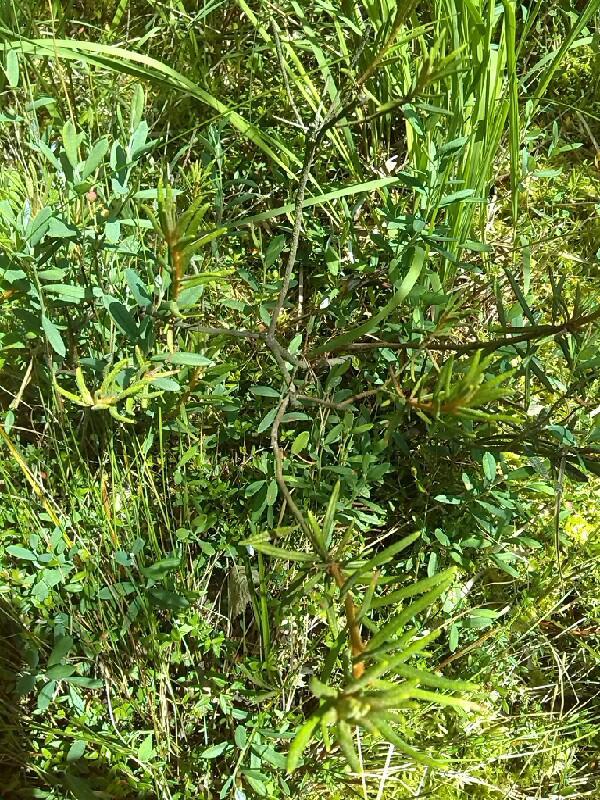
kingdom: Plantae
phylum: Tracheophyta
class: Magnoliopsida
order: Ericales
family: Ericaceae
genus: Rhododendron
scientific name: Rhododendron tomentosum
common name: Marsh labrador tea
